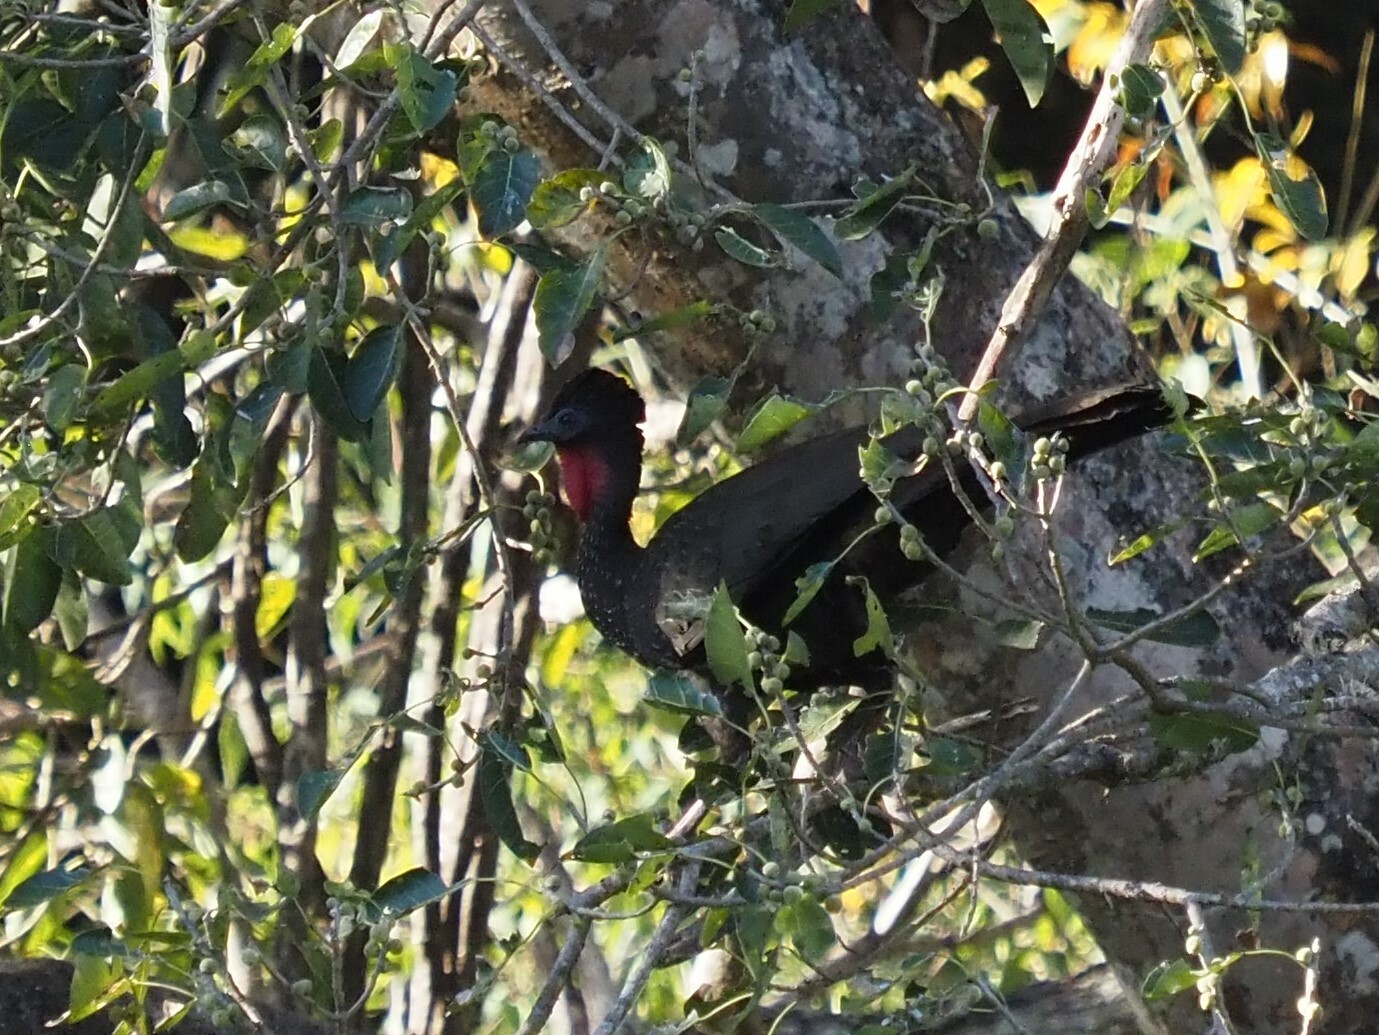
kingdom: Animalia
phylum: Chordata
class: Aves
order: Galliformes
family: Cracidae
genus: Penelope
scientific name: Penelope purpurascens
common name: Crested guan
